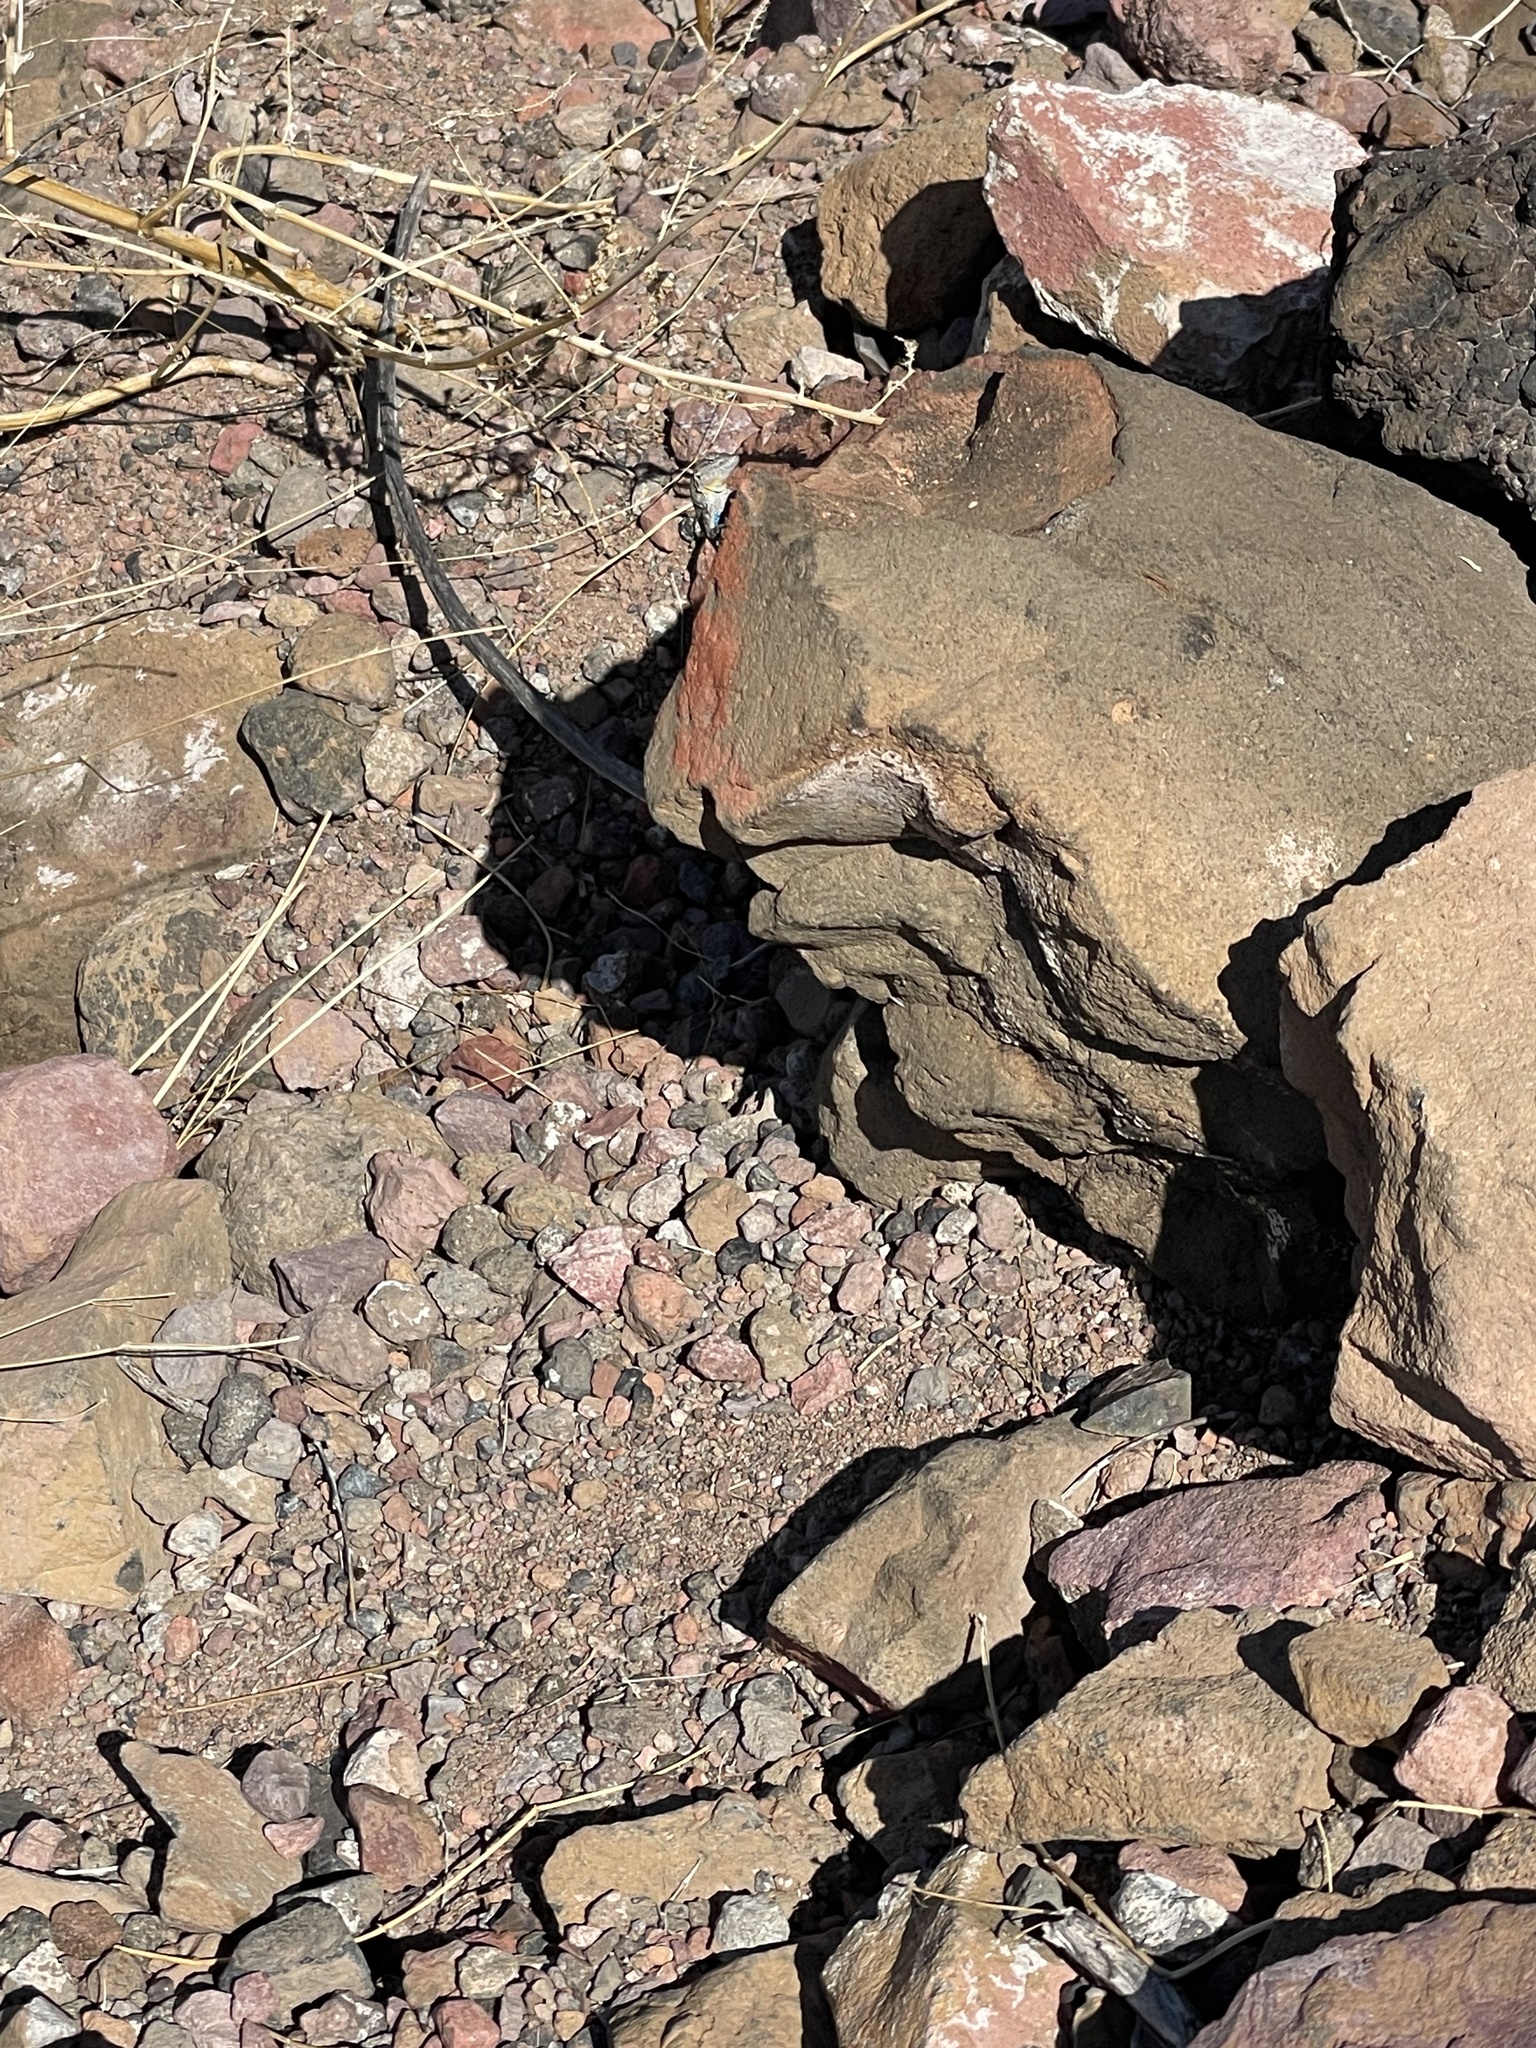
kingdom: Animalia
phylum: Chordata
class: Squamata
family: Phrynosomatidae
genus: Urosaurus
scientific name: Urosaurus nigricauda
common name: Baja california brush lizard
